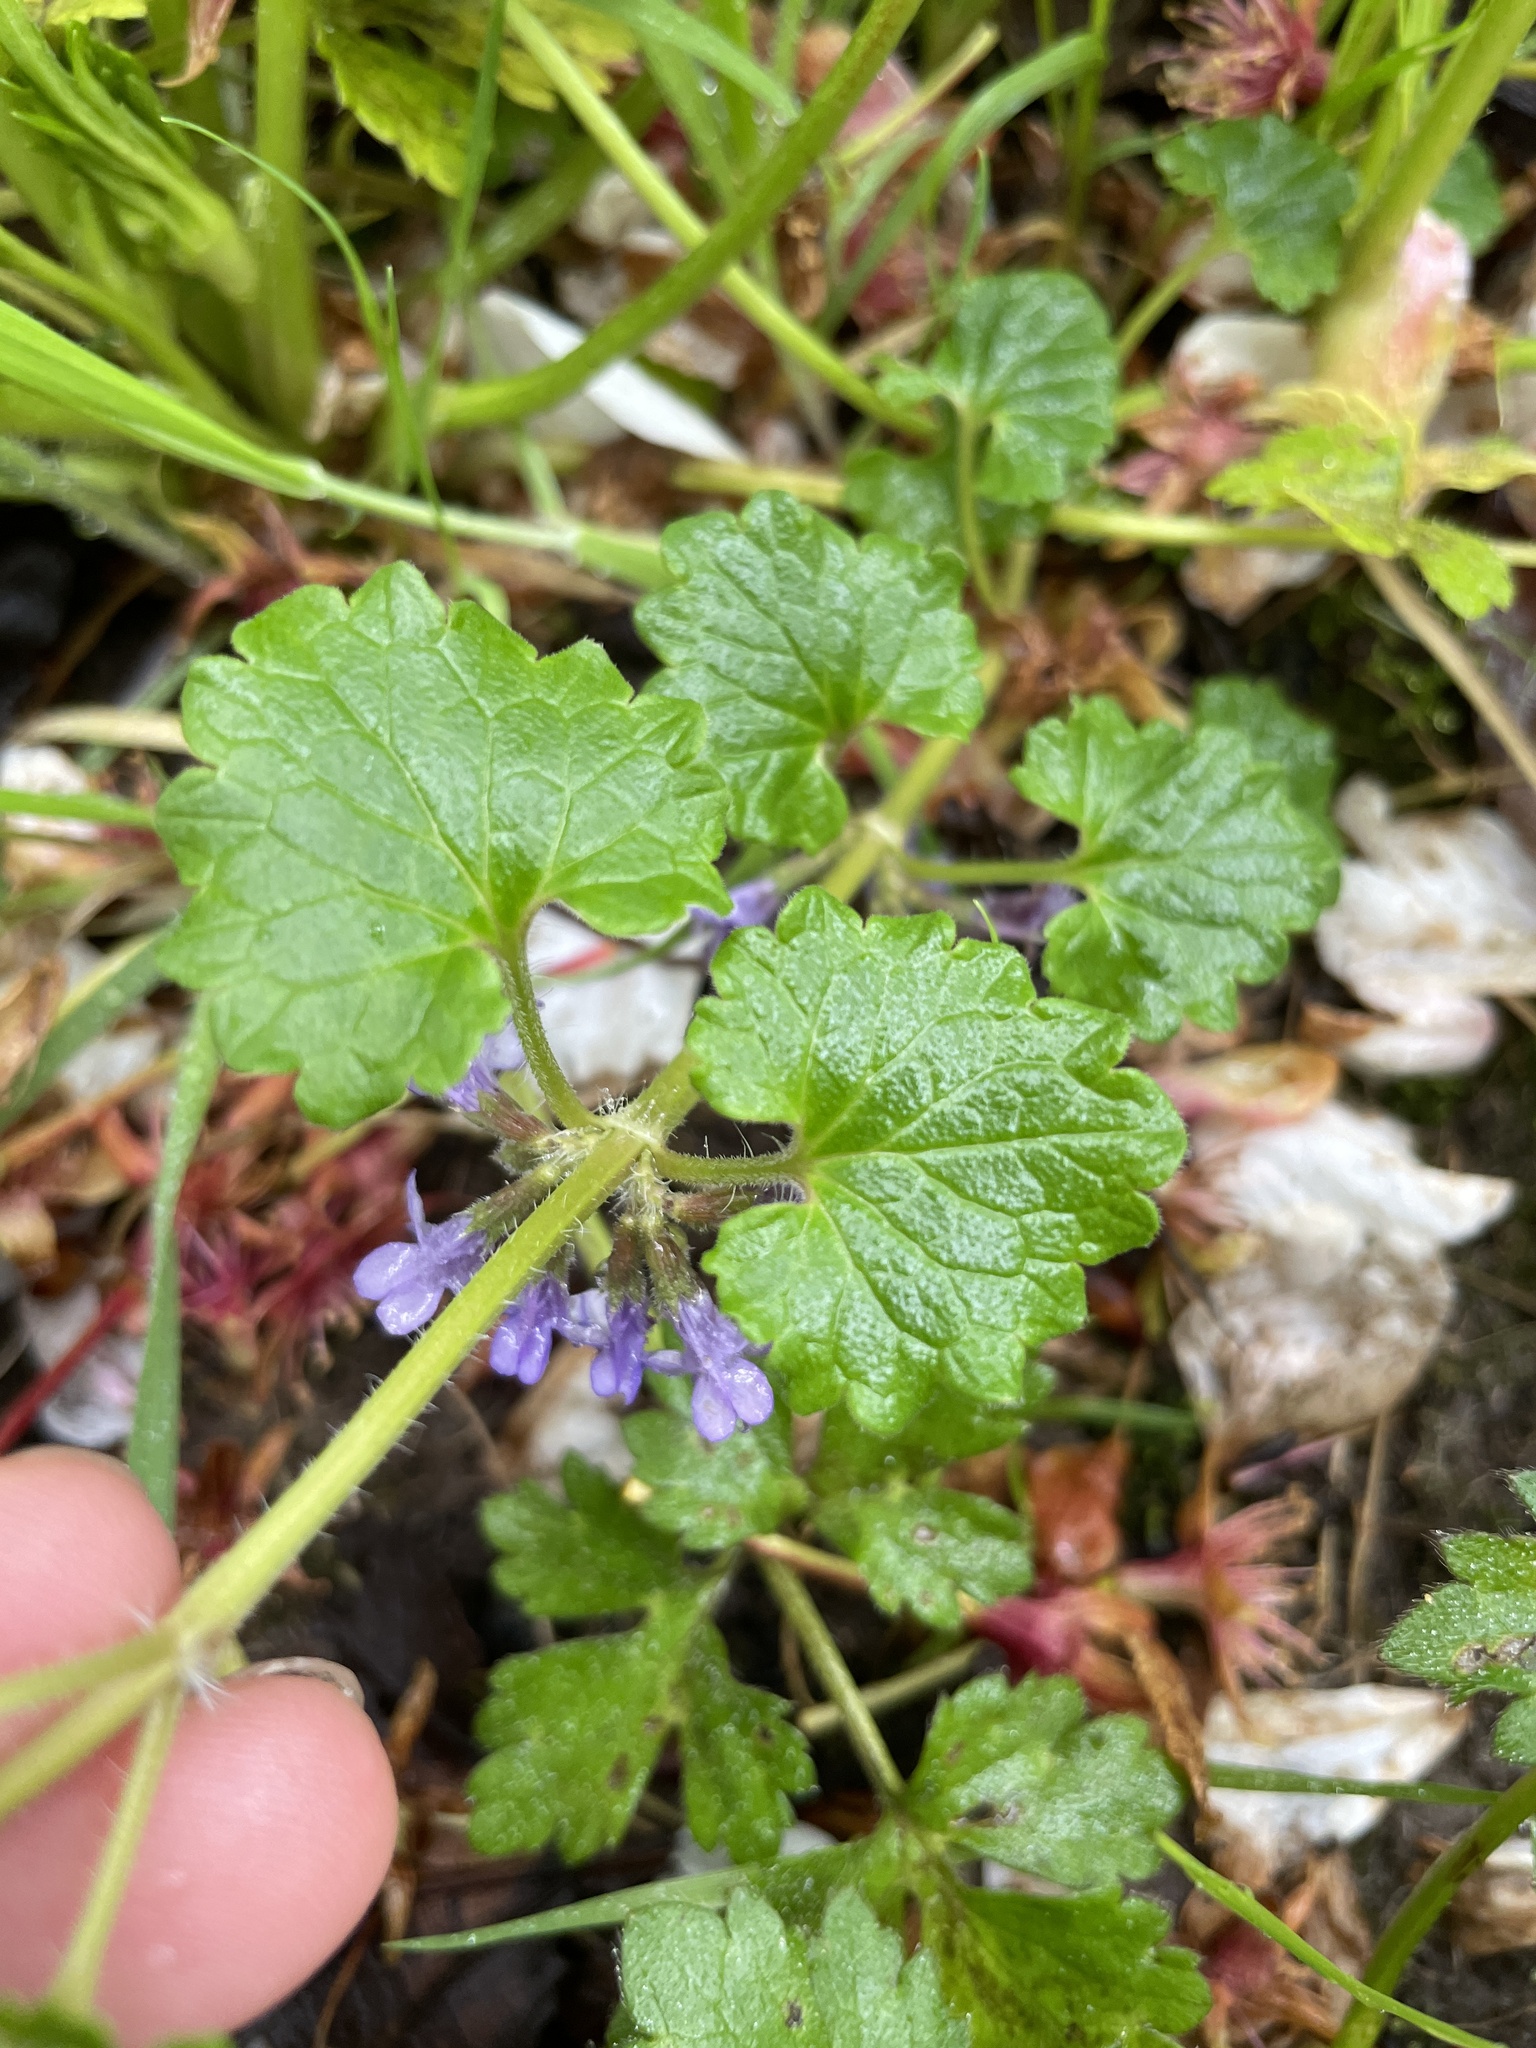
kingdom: Plantae
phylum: Tracheophyta
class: Magnoliopsida
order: Lamiales
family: Lamiaceae
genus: Glechoma
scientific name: Glechoma hederacea
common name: Ground ivy
